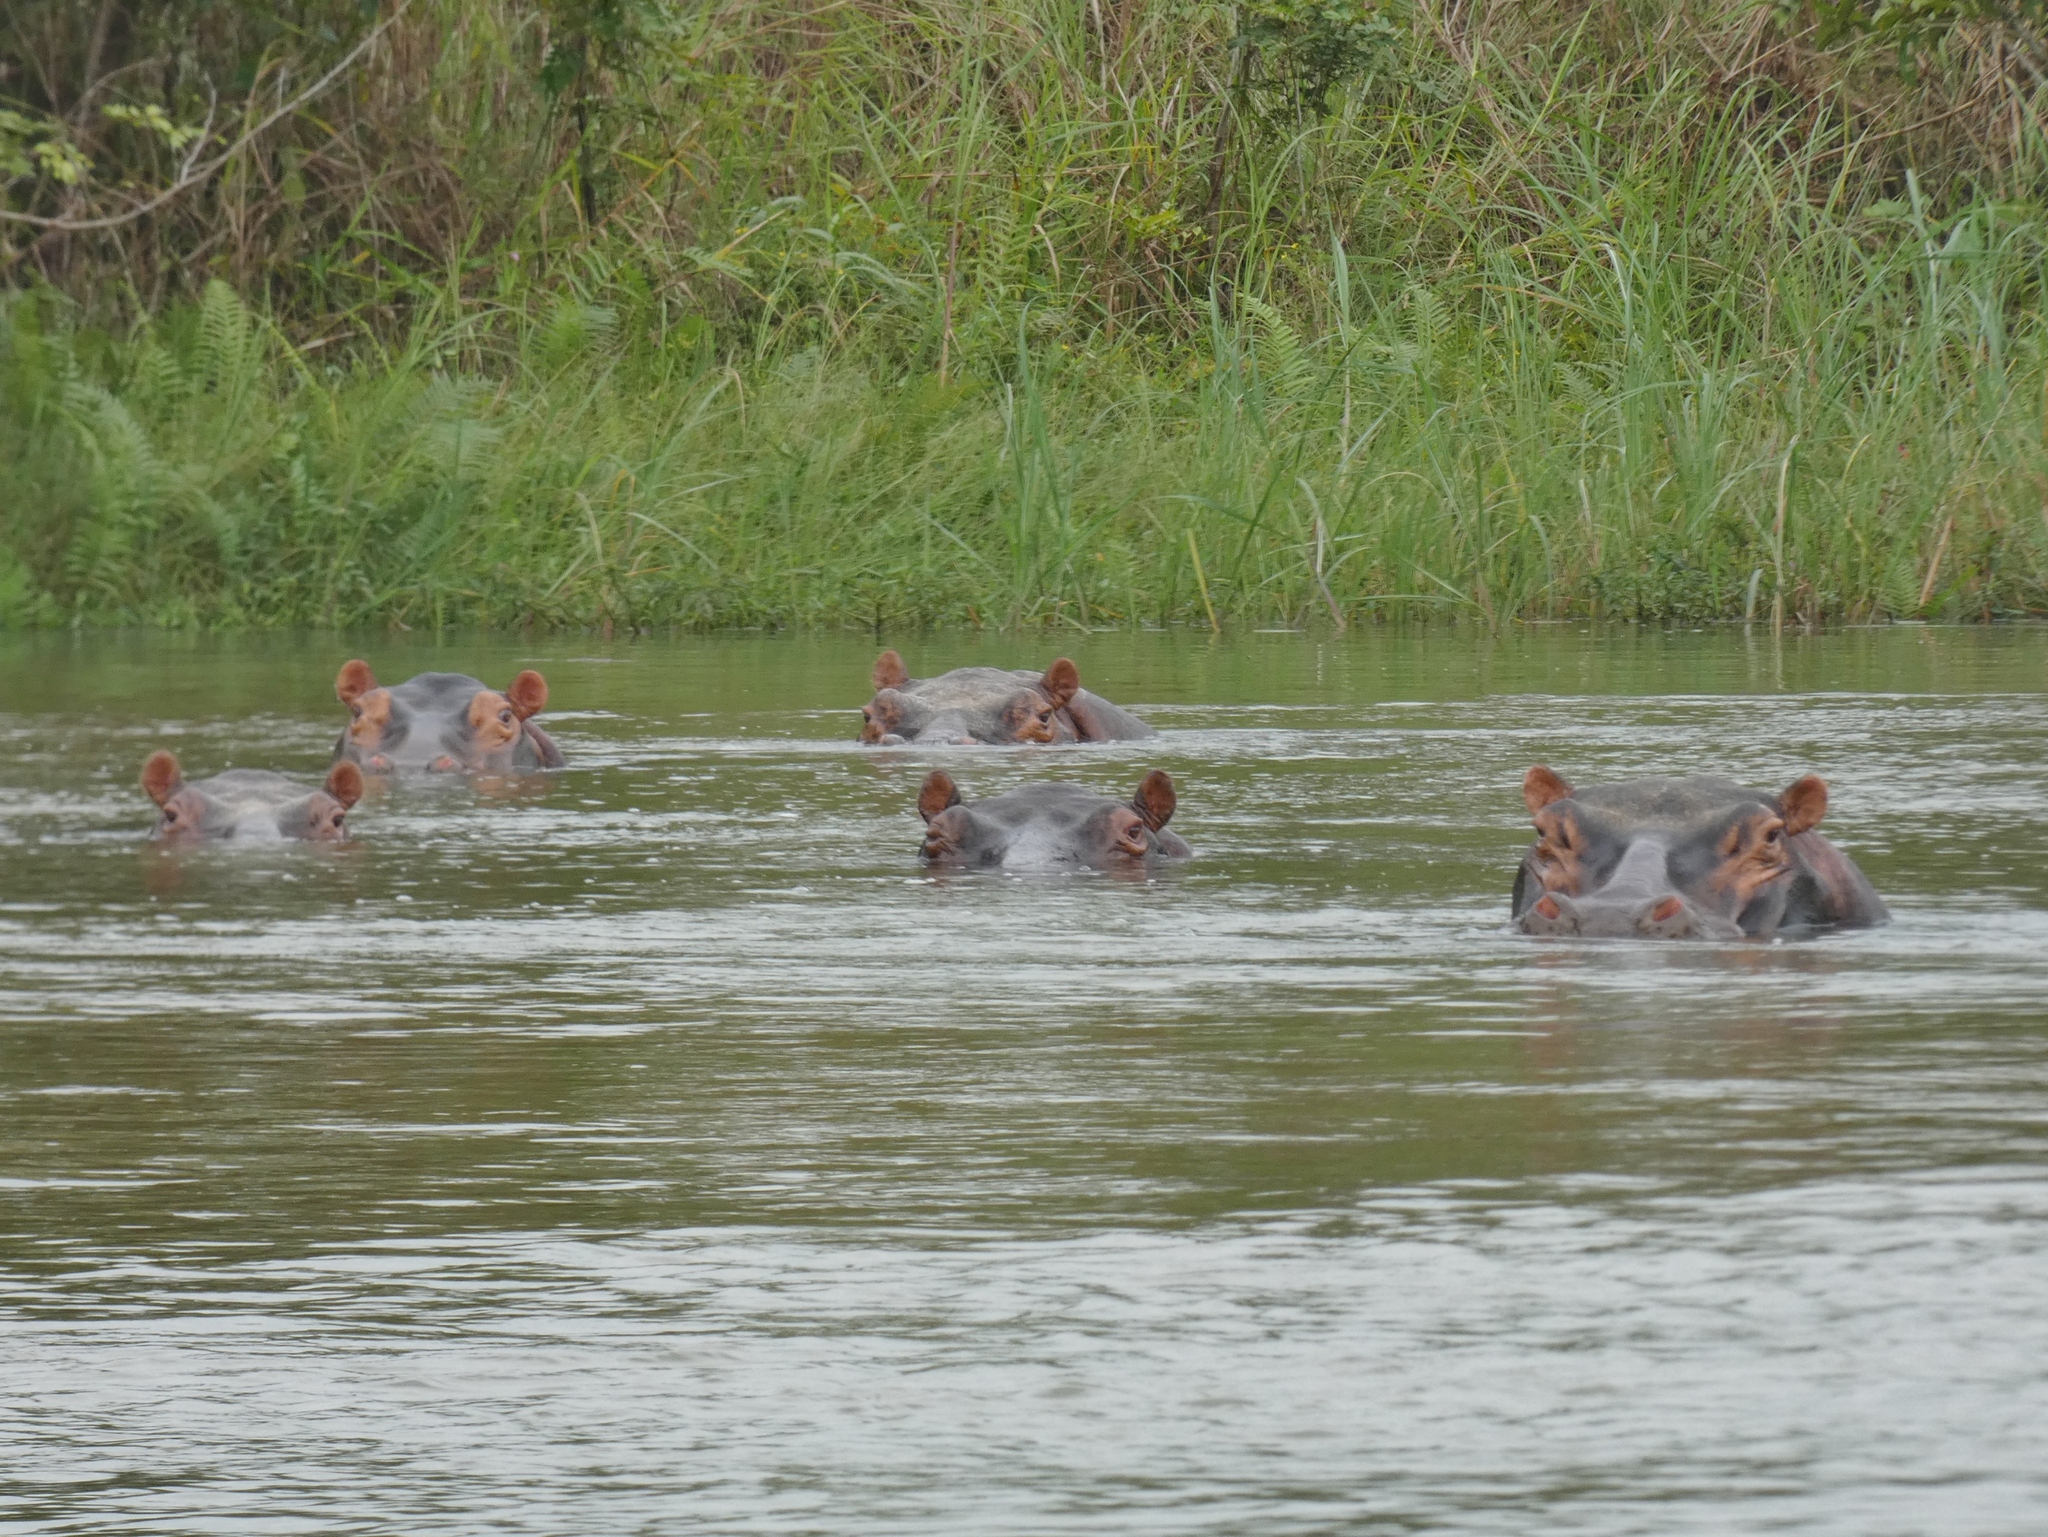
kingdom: Animalia
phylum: Chordata
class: Mammalia
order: Artiodactyla
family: Hippopotamidae
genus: Hippopotamus
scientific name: Hippopotamus amphibius
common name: Common hippopotamus
